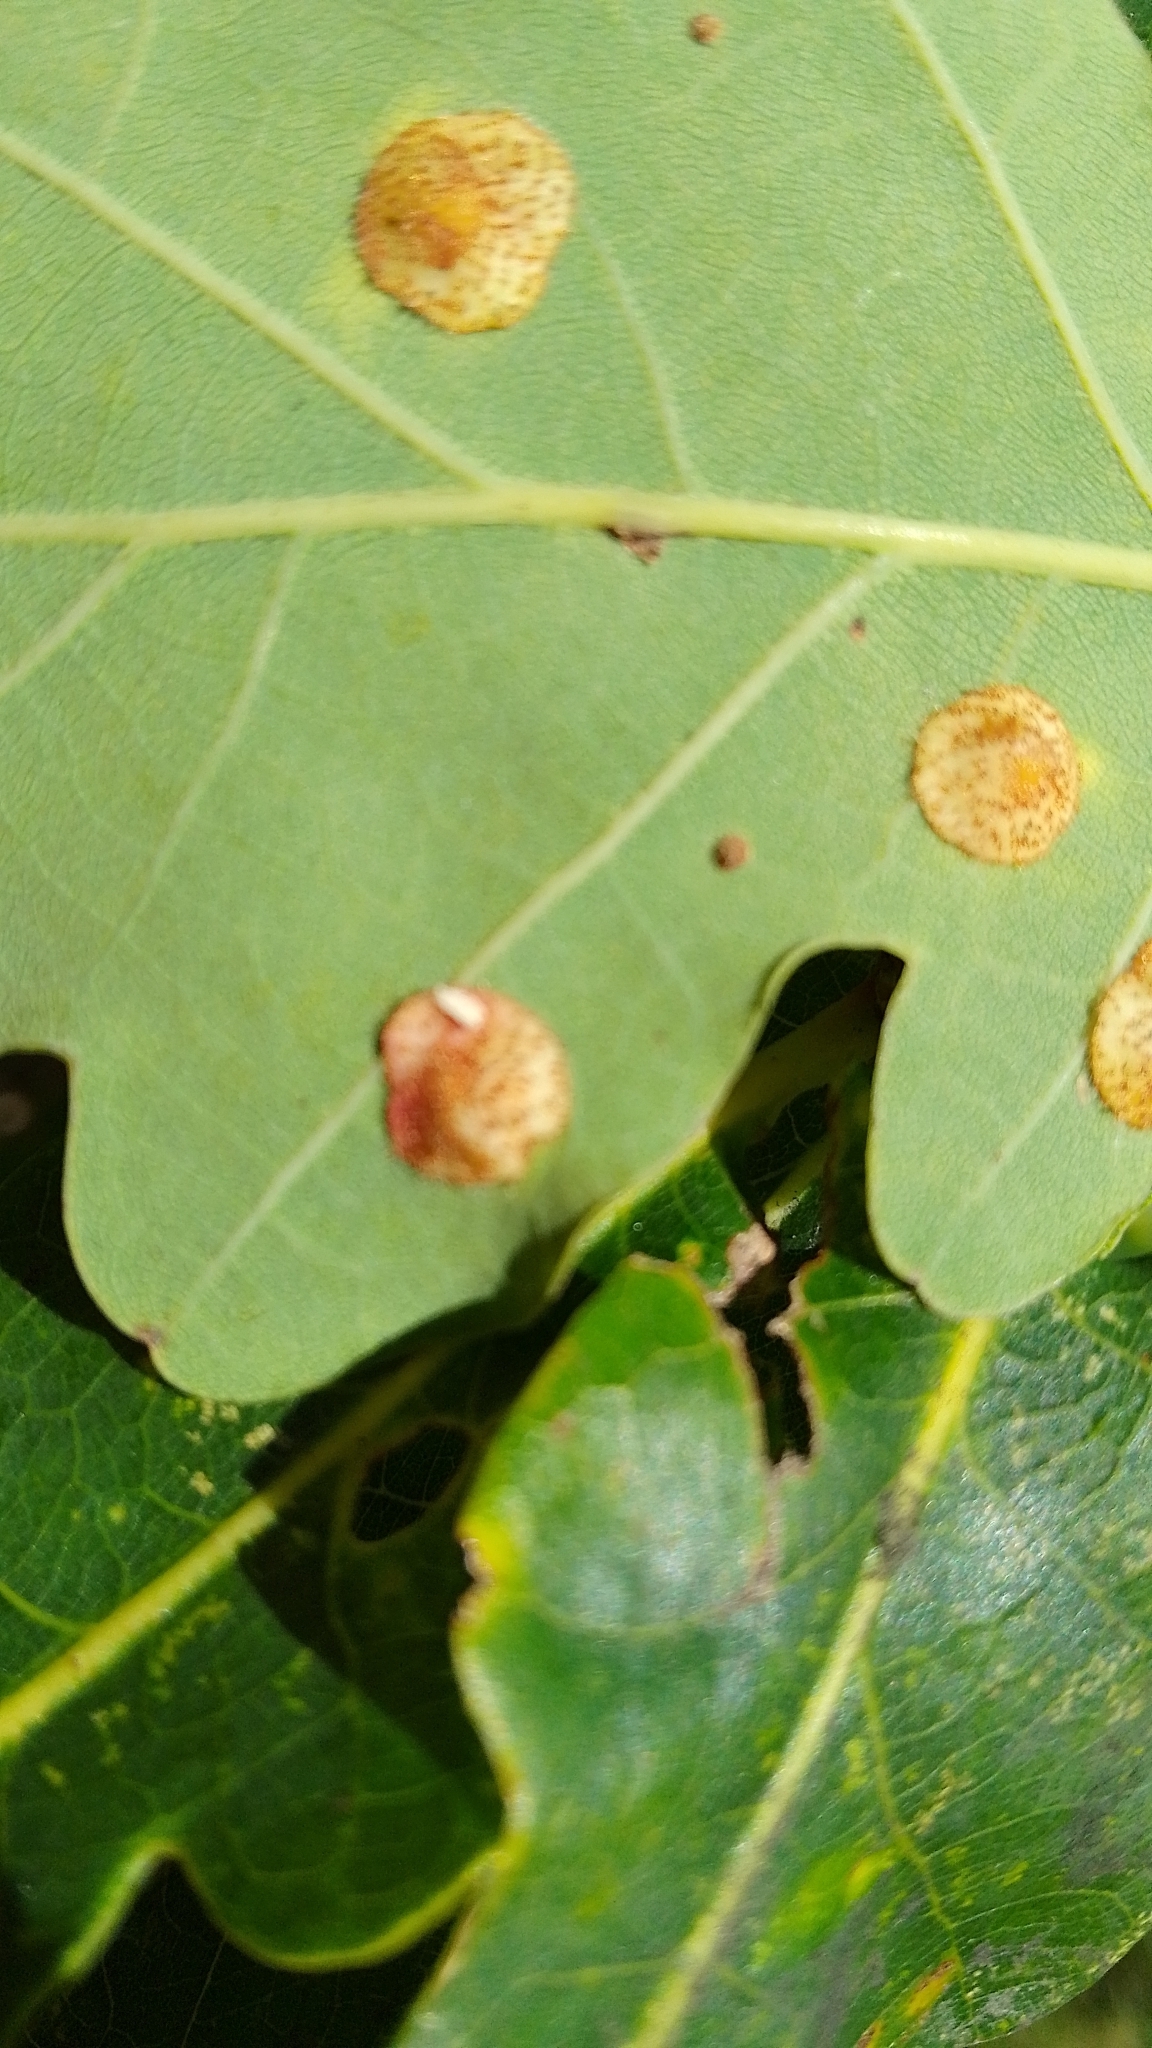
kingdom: Animalia
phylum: Arthropoda
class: Insecta
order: Hymenoptera
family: Cynipidae
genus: Neuroterus
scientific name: Neuroterus quercusbaccarum
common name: Common spangle gall
